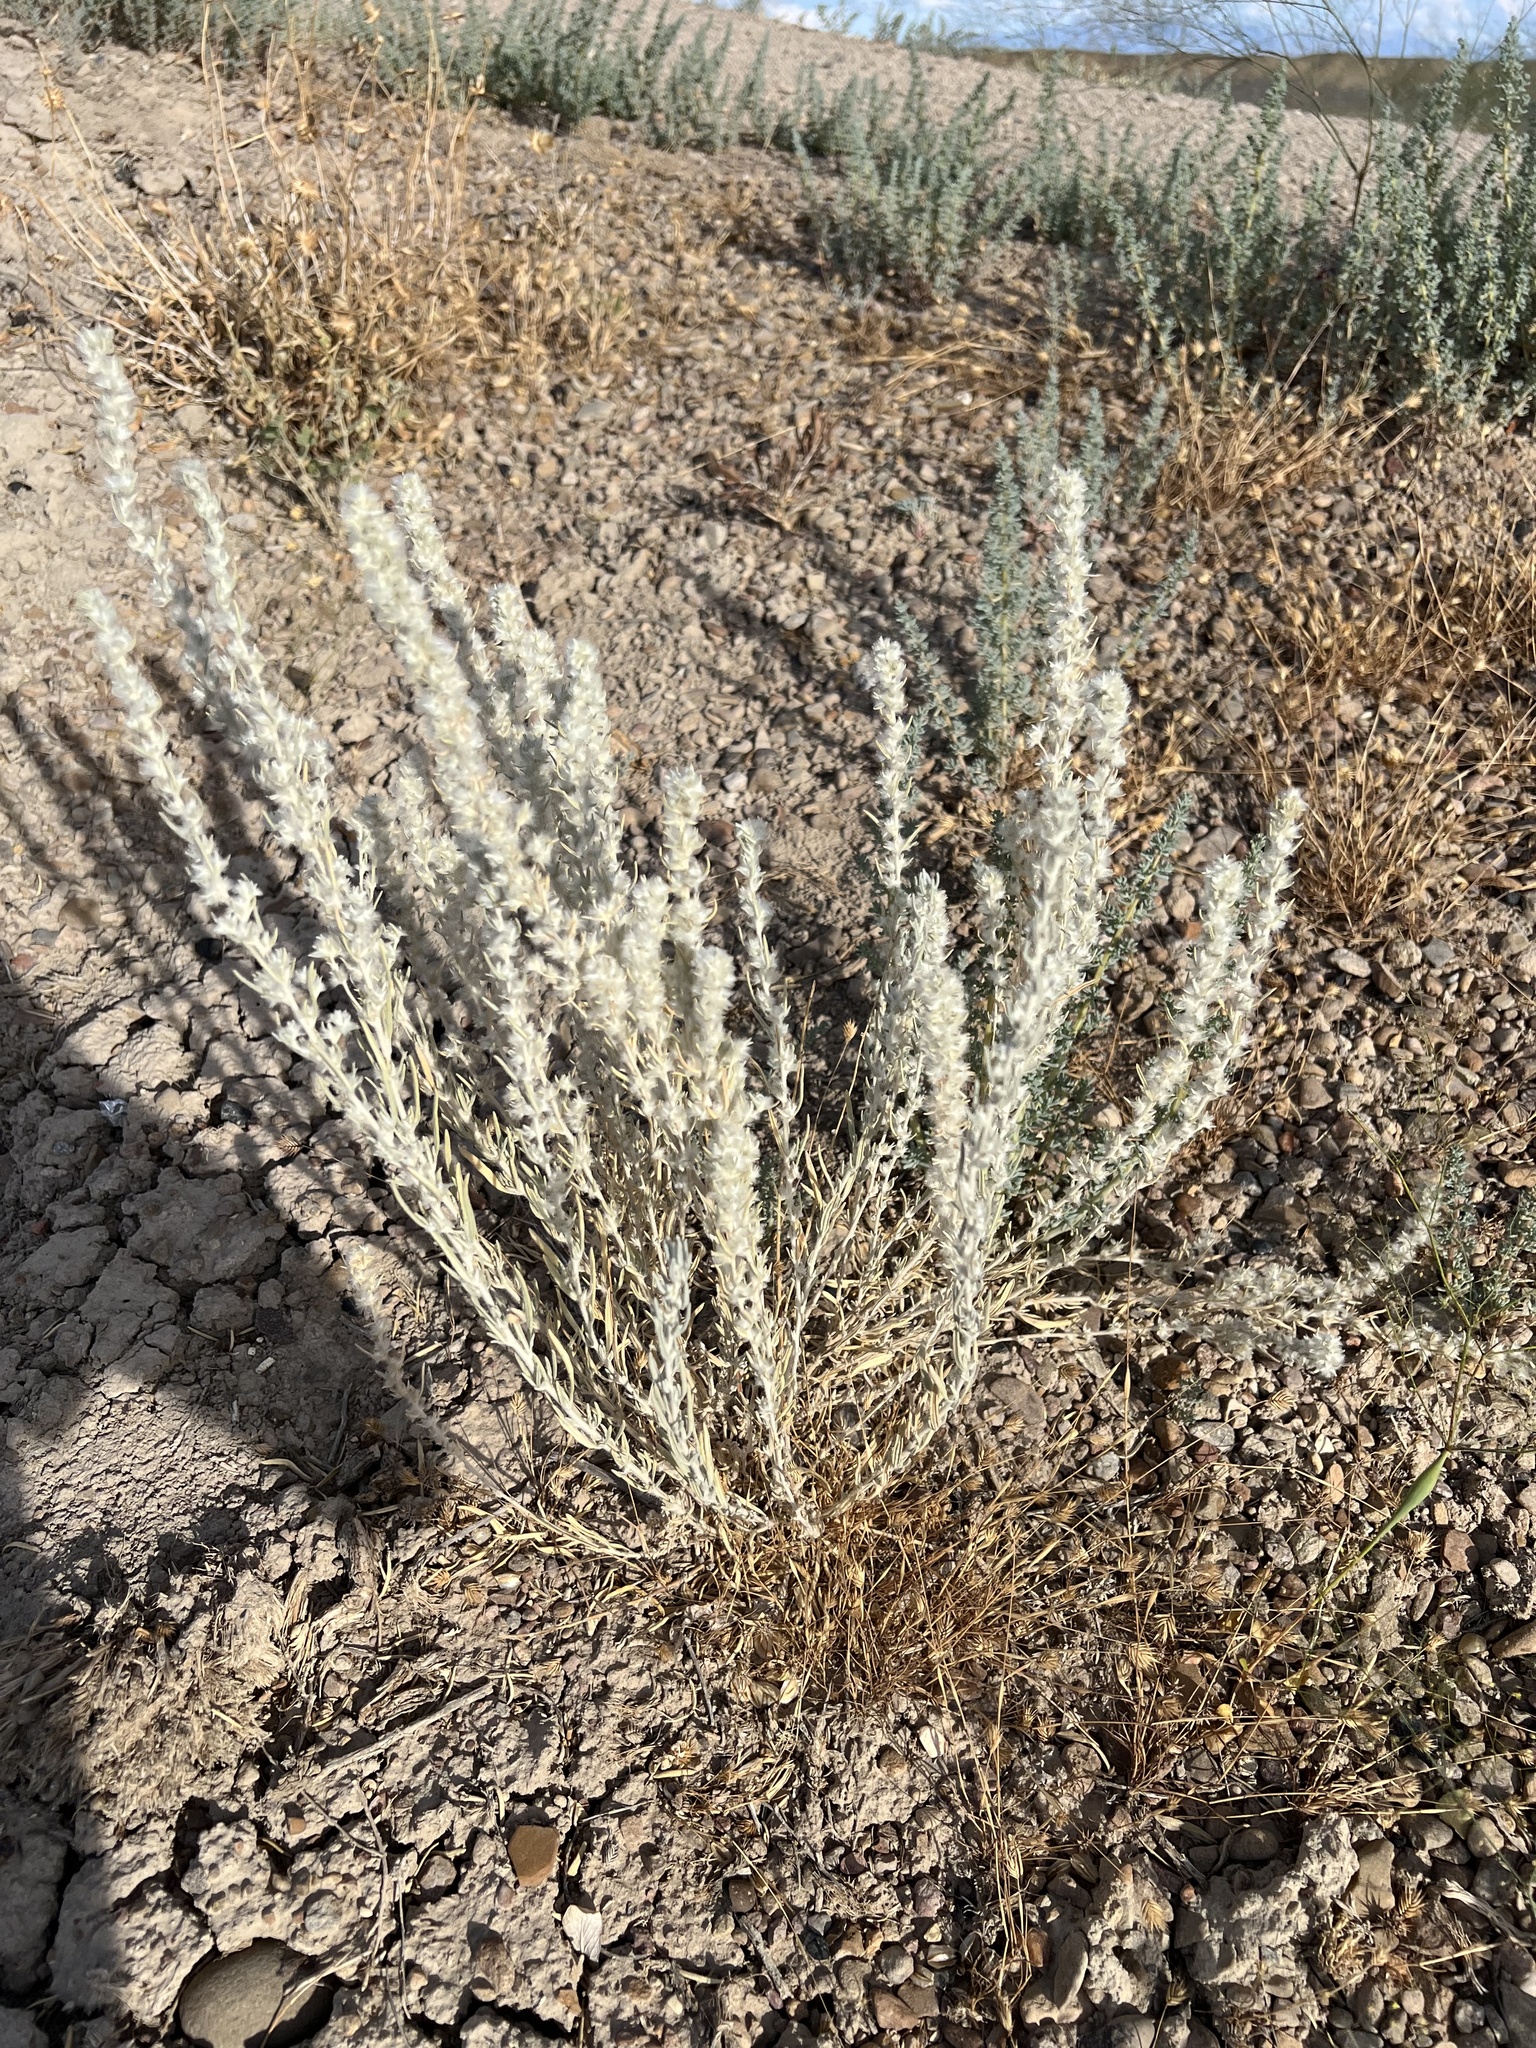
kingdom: Plantae
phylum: Tracheophyta
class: Magnoliopsida
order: Caryophyllales
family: Amaranthaceae
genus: Krascheninnikovia
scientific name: Krascheninnikovia lanata
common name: Winterfat
